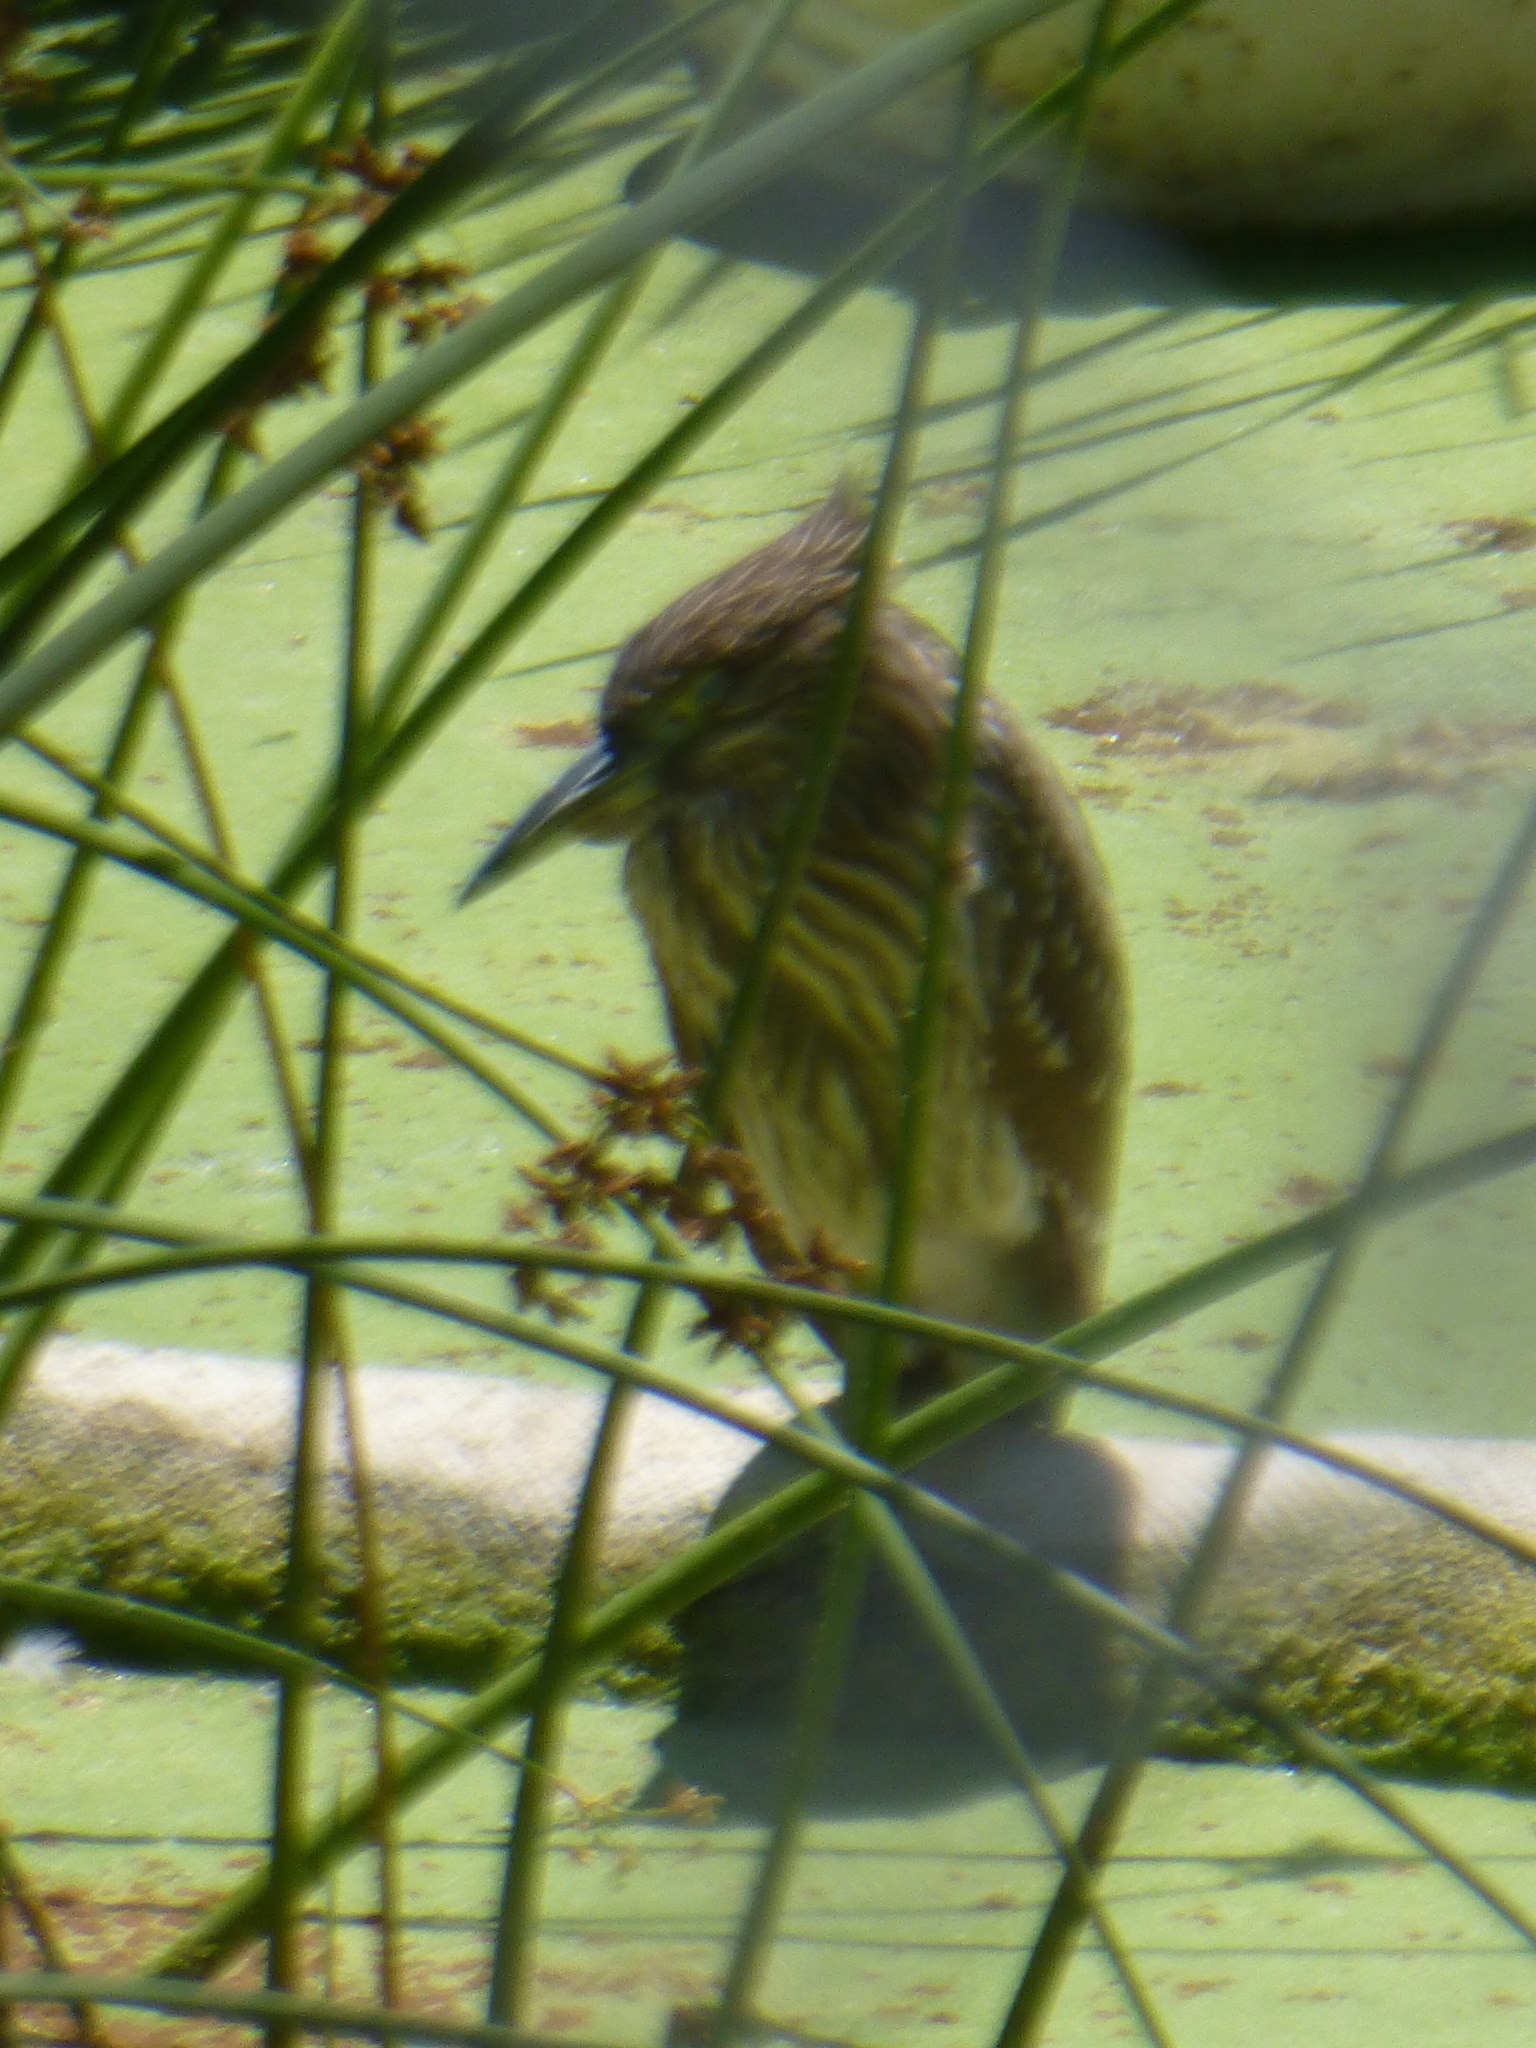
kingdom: Animalia
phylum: Chordata
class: Aves
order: Pelecaniformes
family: Ardeidae
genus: Nycticorax
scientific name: Nycticorax nycticorax
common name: Black-crowned night heron
